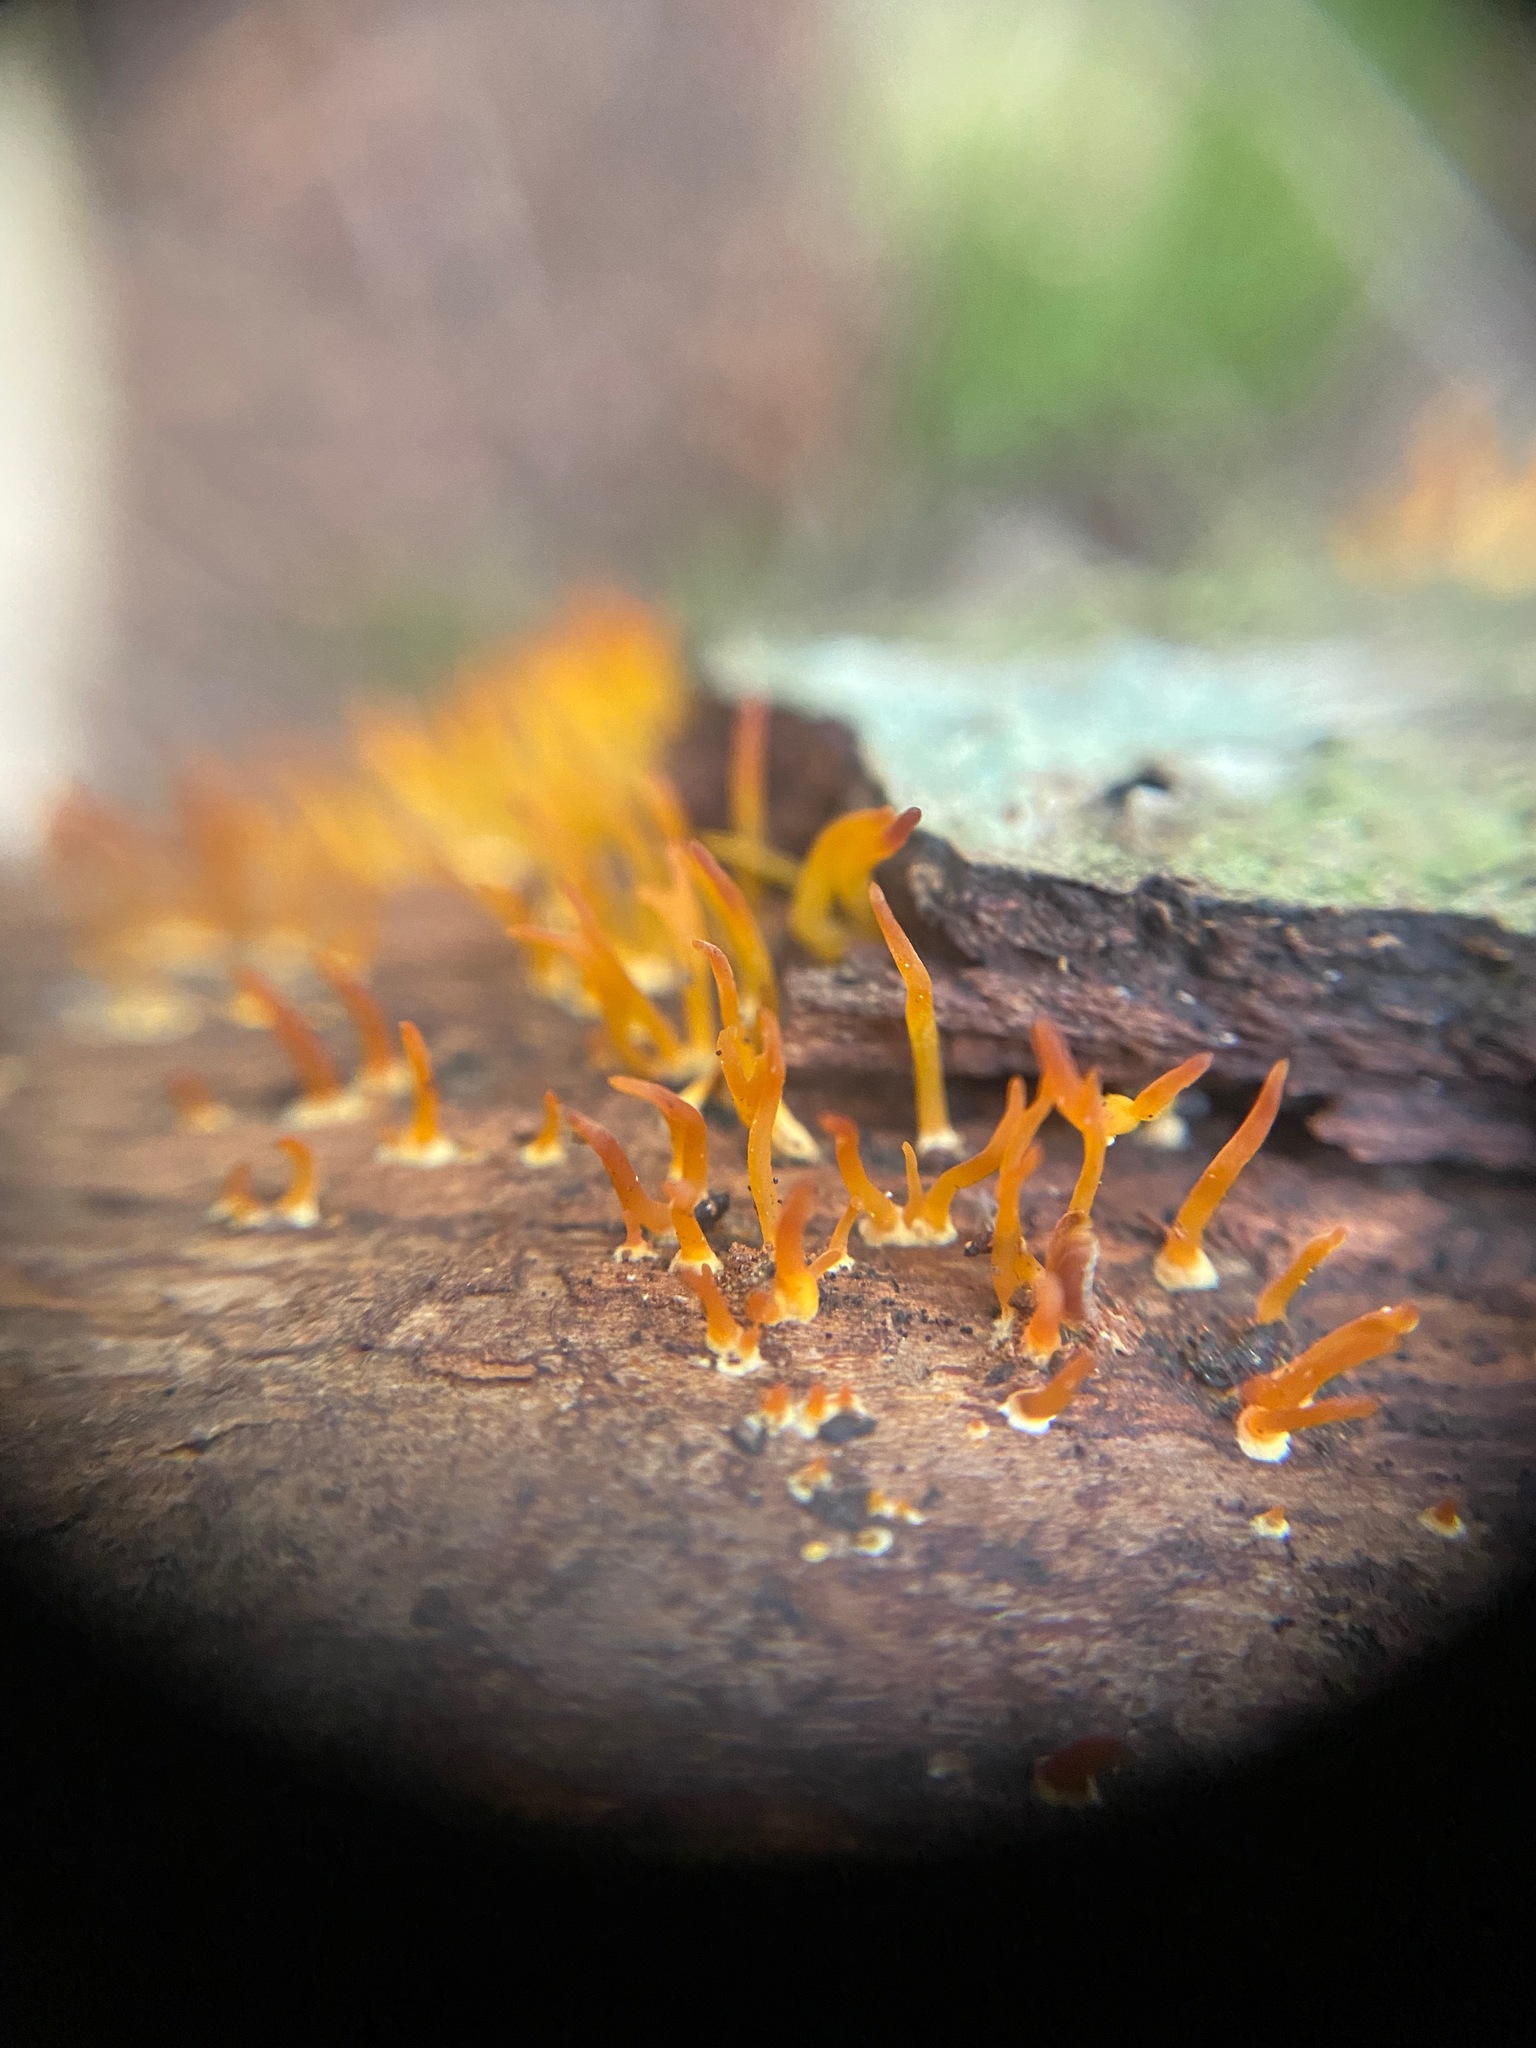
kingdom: Fungi
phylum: Basidiomycota
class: Dacrymycetes
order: Dacrymycetales
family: Dacrymycetaceae
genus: Calocera
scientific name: Calocera cornea
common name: Small stagshorn
